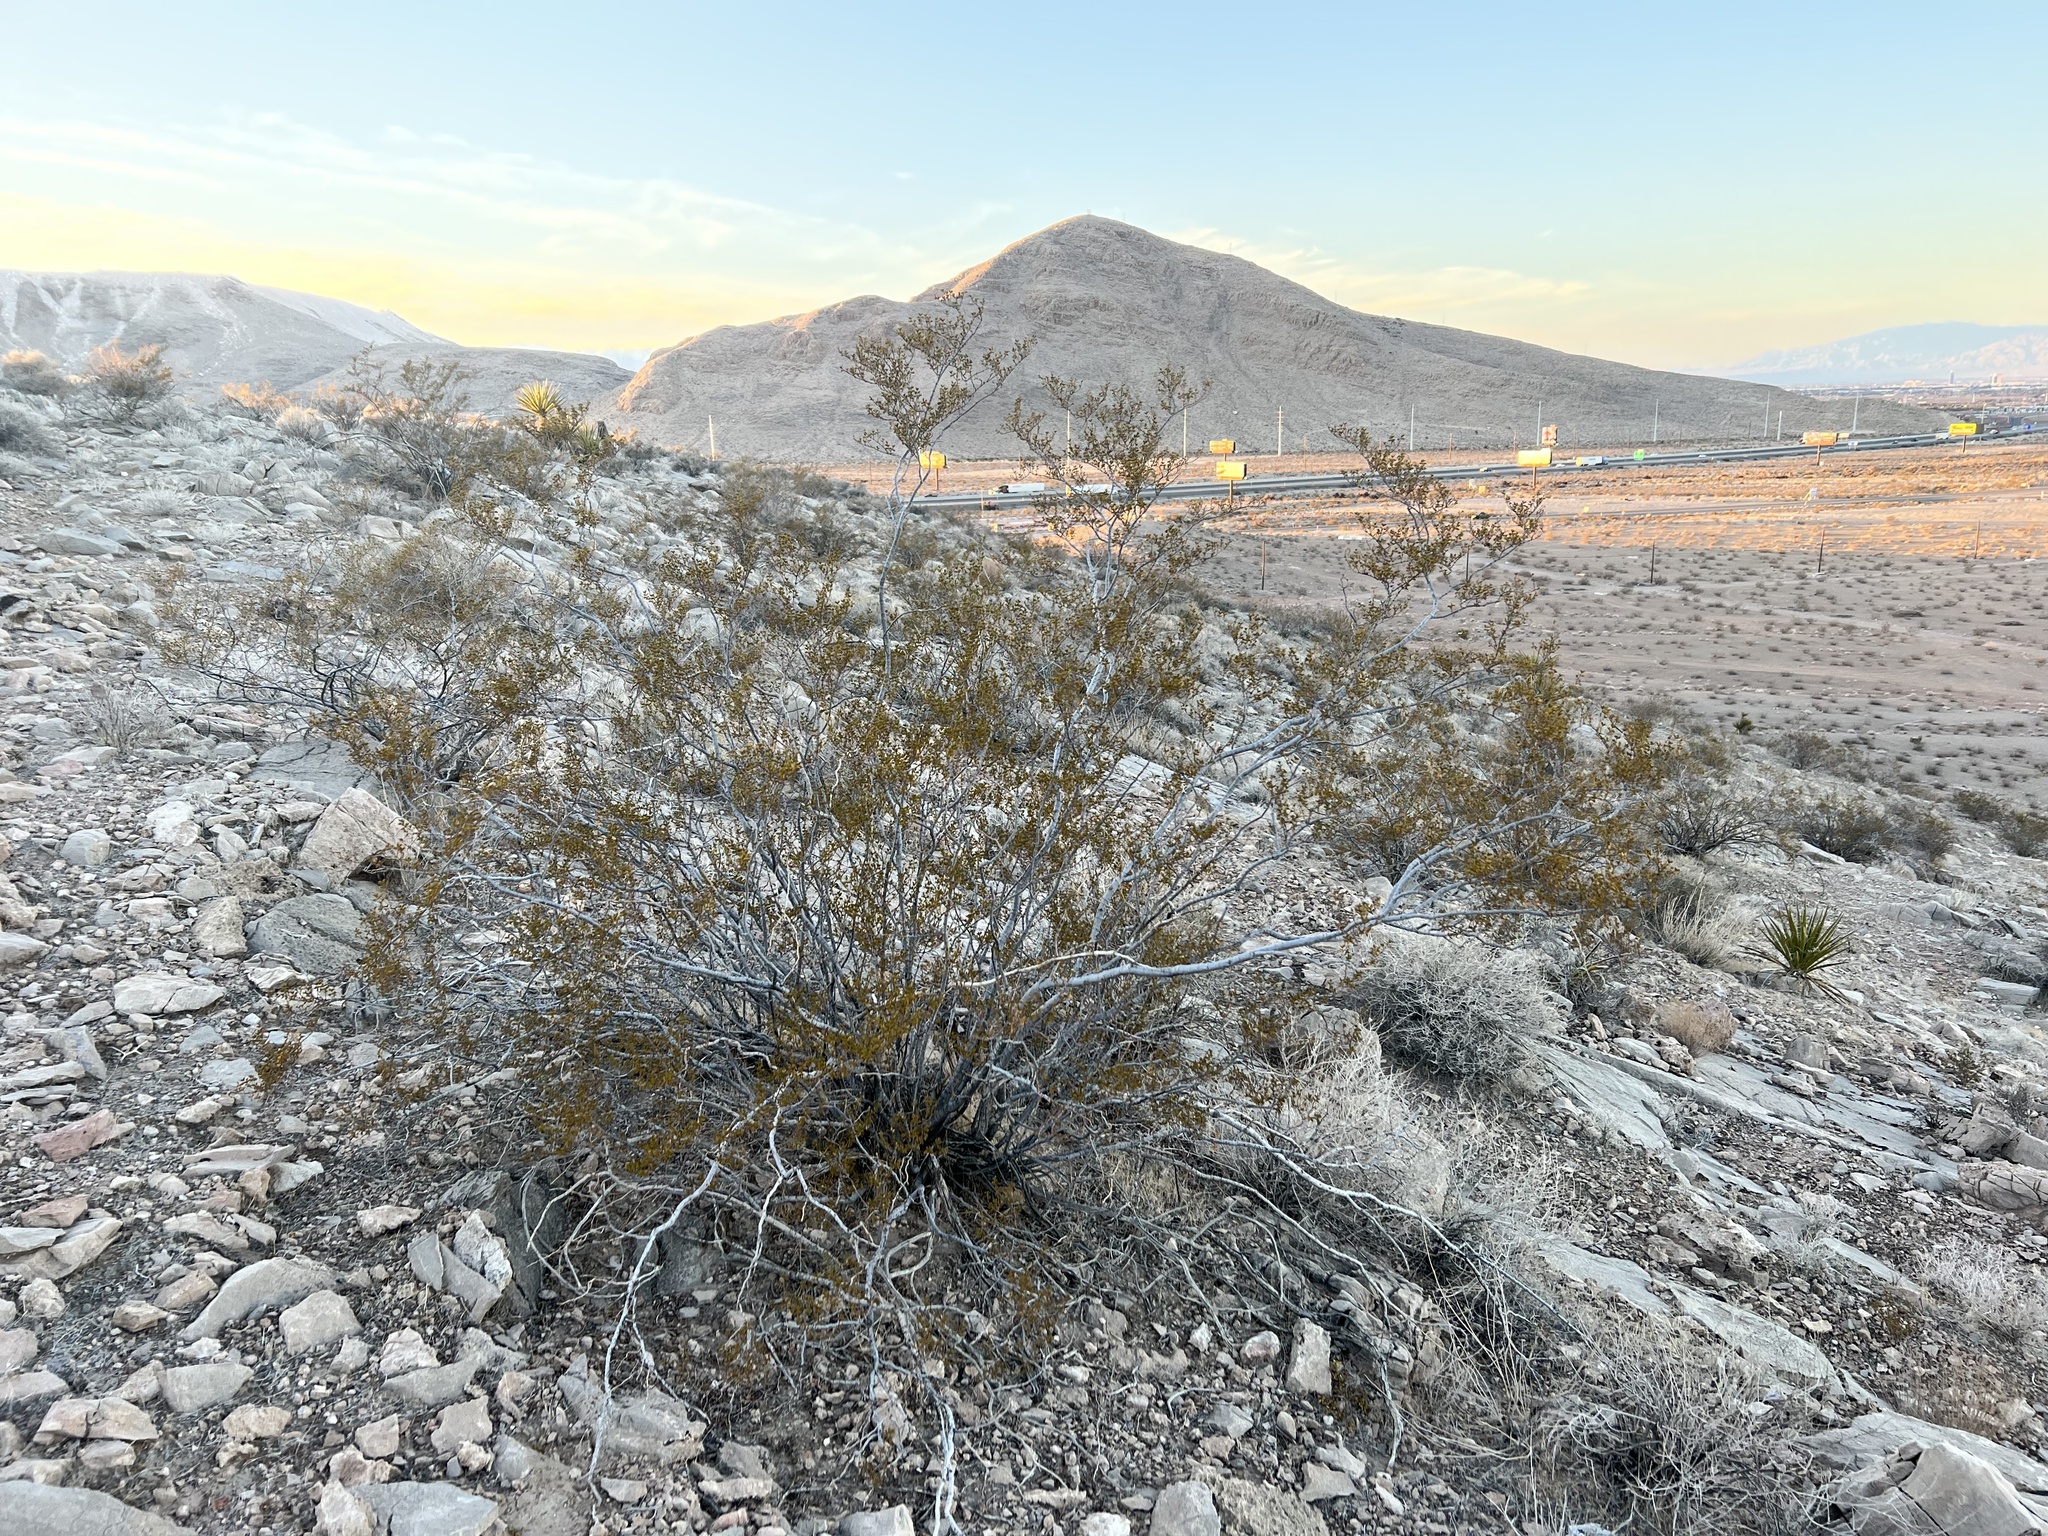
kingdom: Plantae
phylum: Tracheophyta
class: Magnoliopsida
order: Zygophyllales
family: Zygophyllaceae
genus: Larrea
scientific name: Larrea tridentata
